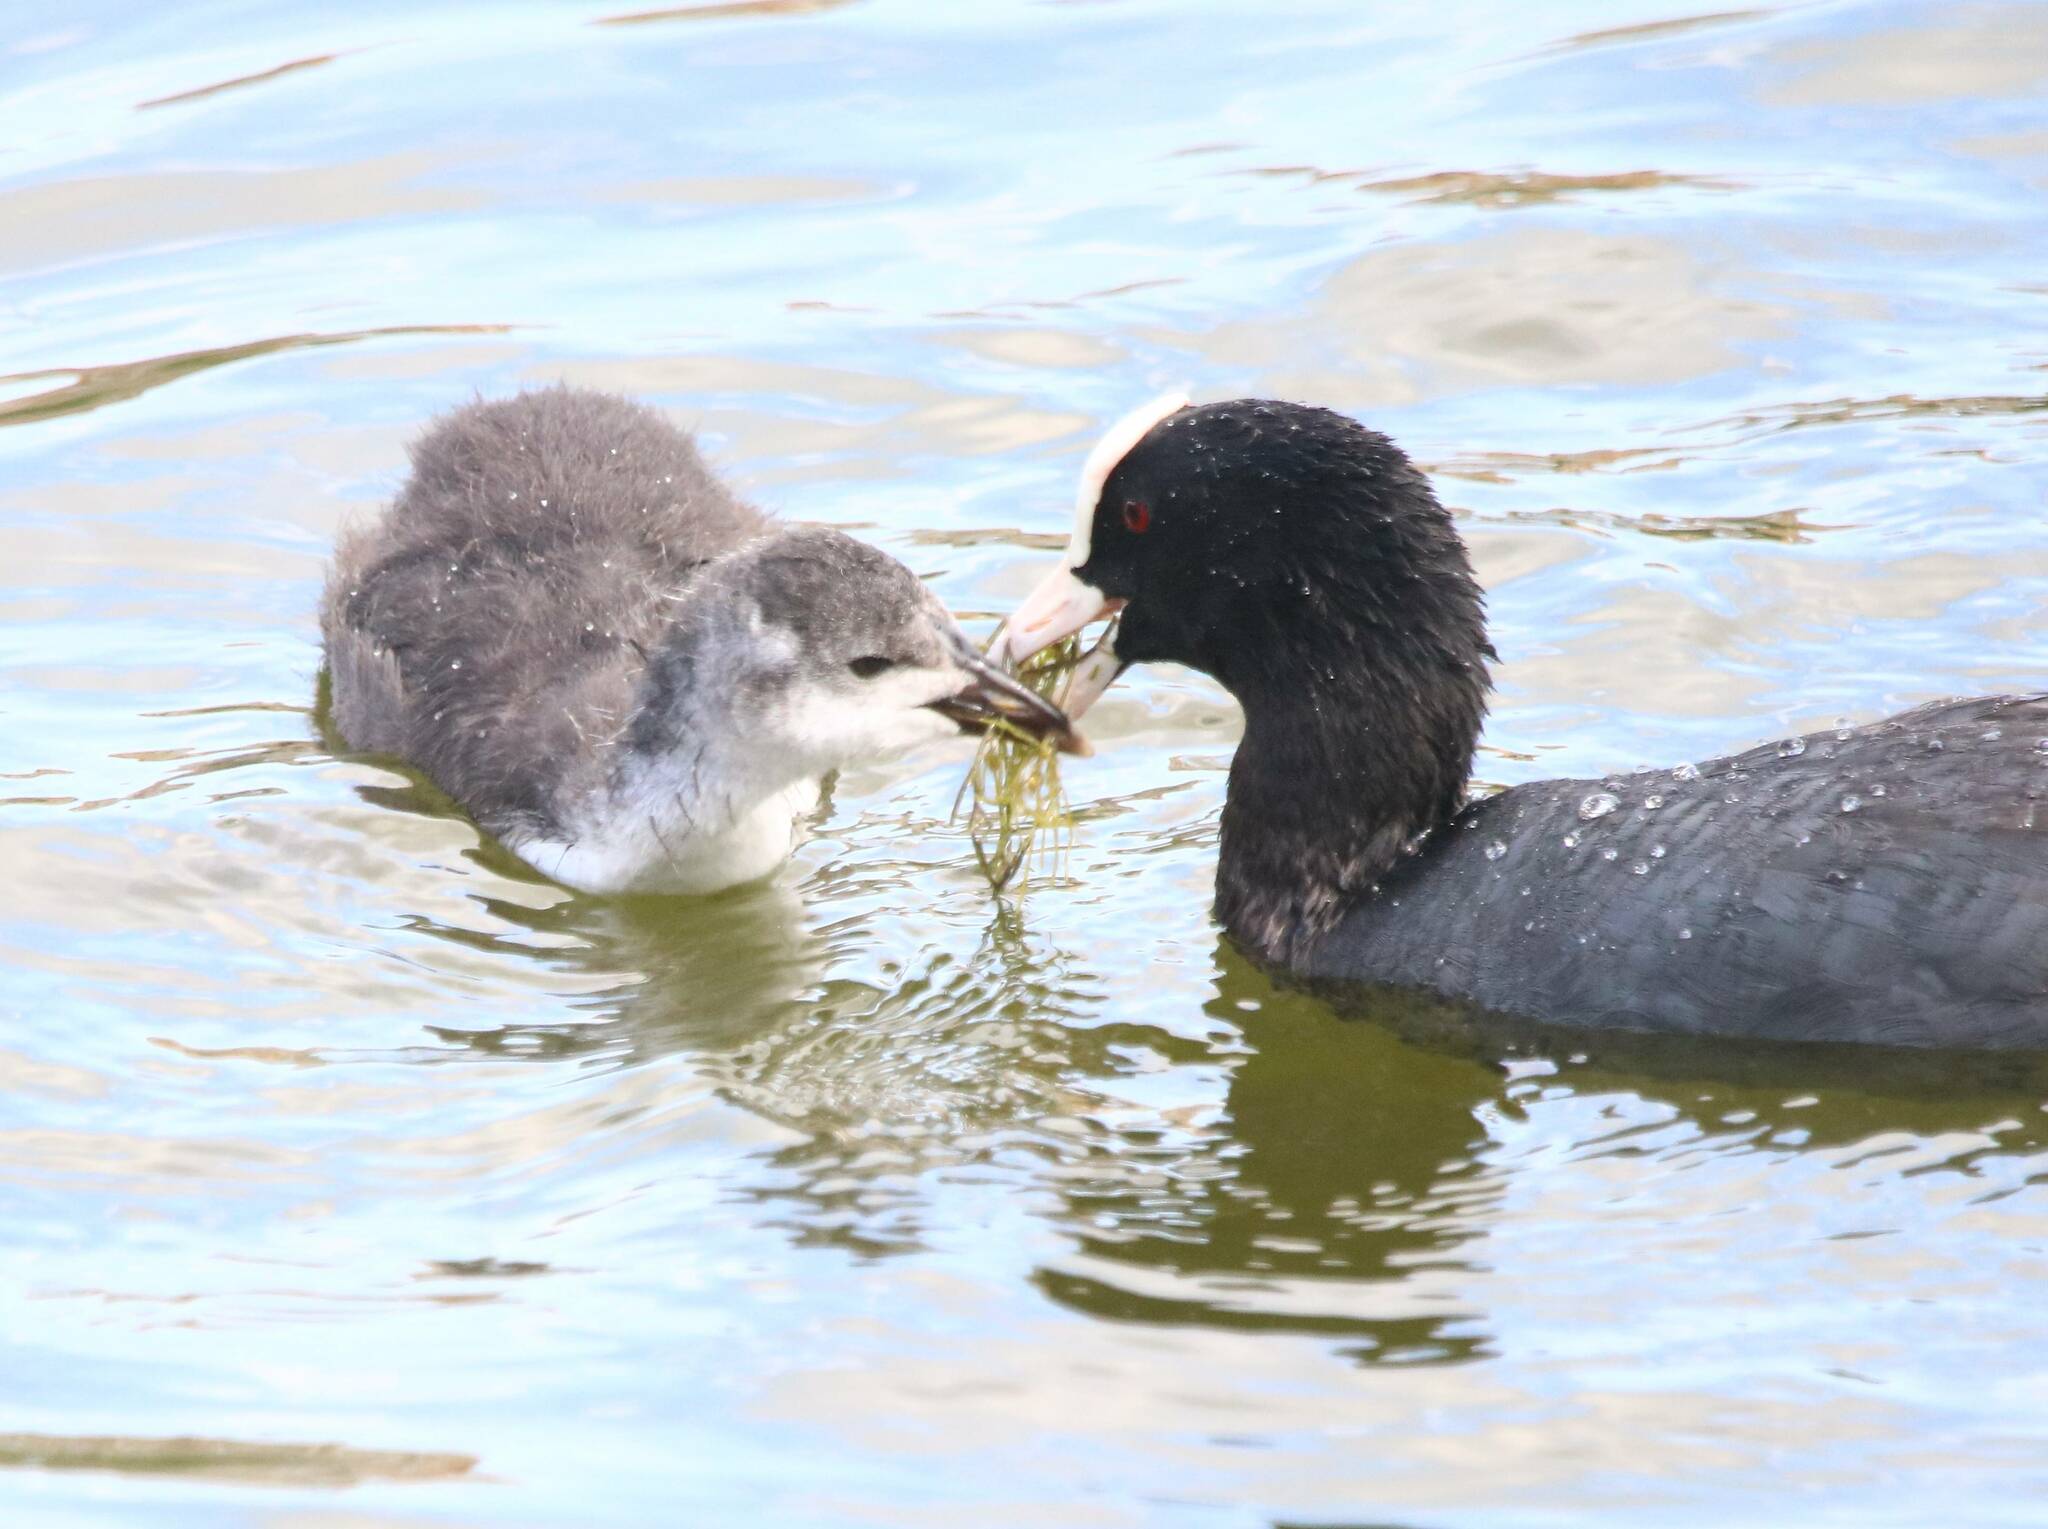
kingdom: Animalia
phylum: Chordata
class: Aves
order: Gruiformes
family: Rallidae
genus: Fulica
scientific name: Fulica atra
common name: Eurasian coot
